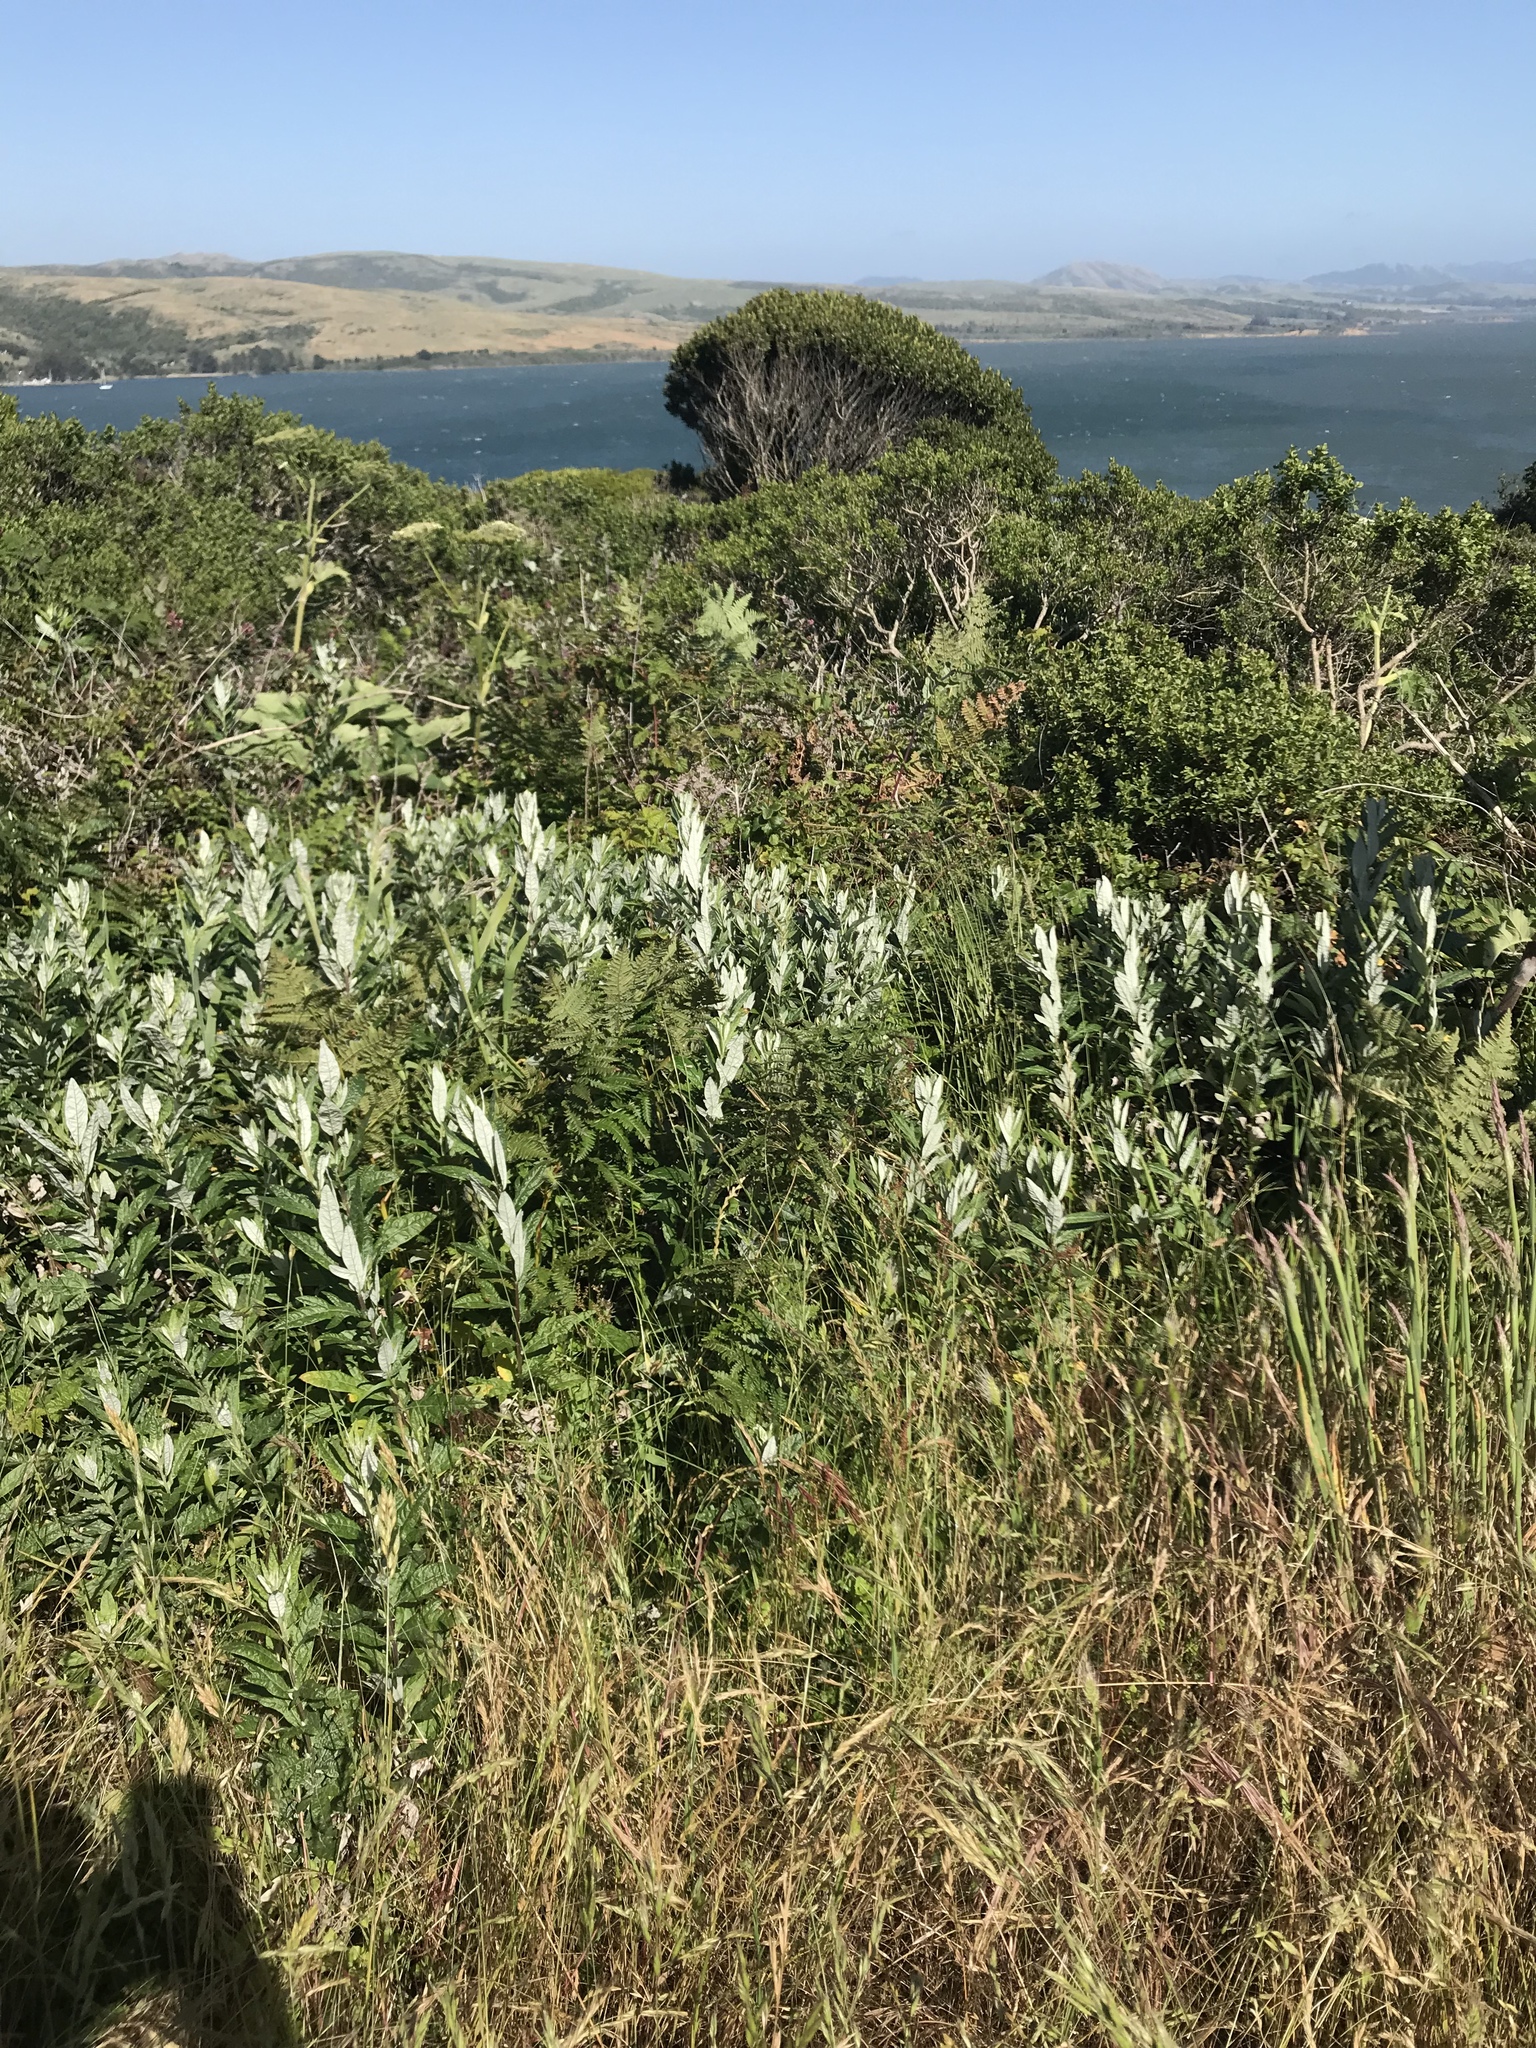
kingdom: Plantae
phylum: Tracheophyta
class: Magnoliopsida
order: Asterales
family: Asteraceae
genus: Artemisia
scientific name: Artemisia douglasiana
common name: Northwest mugwort
